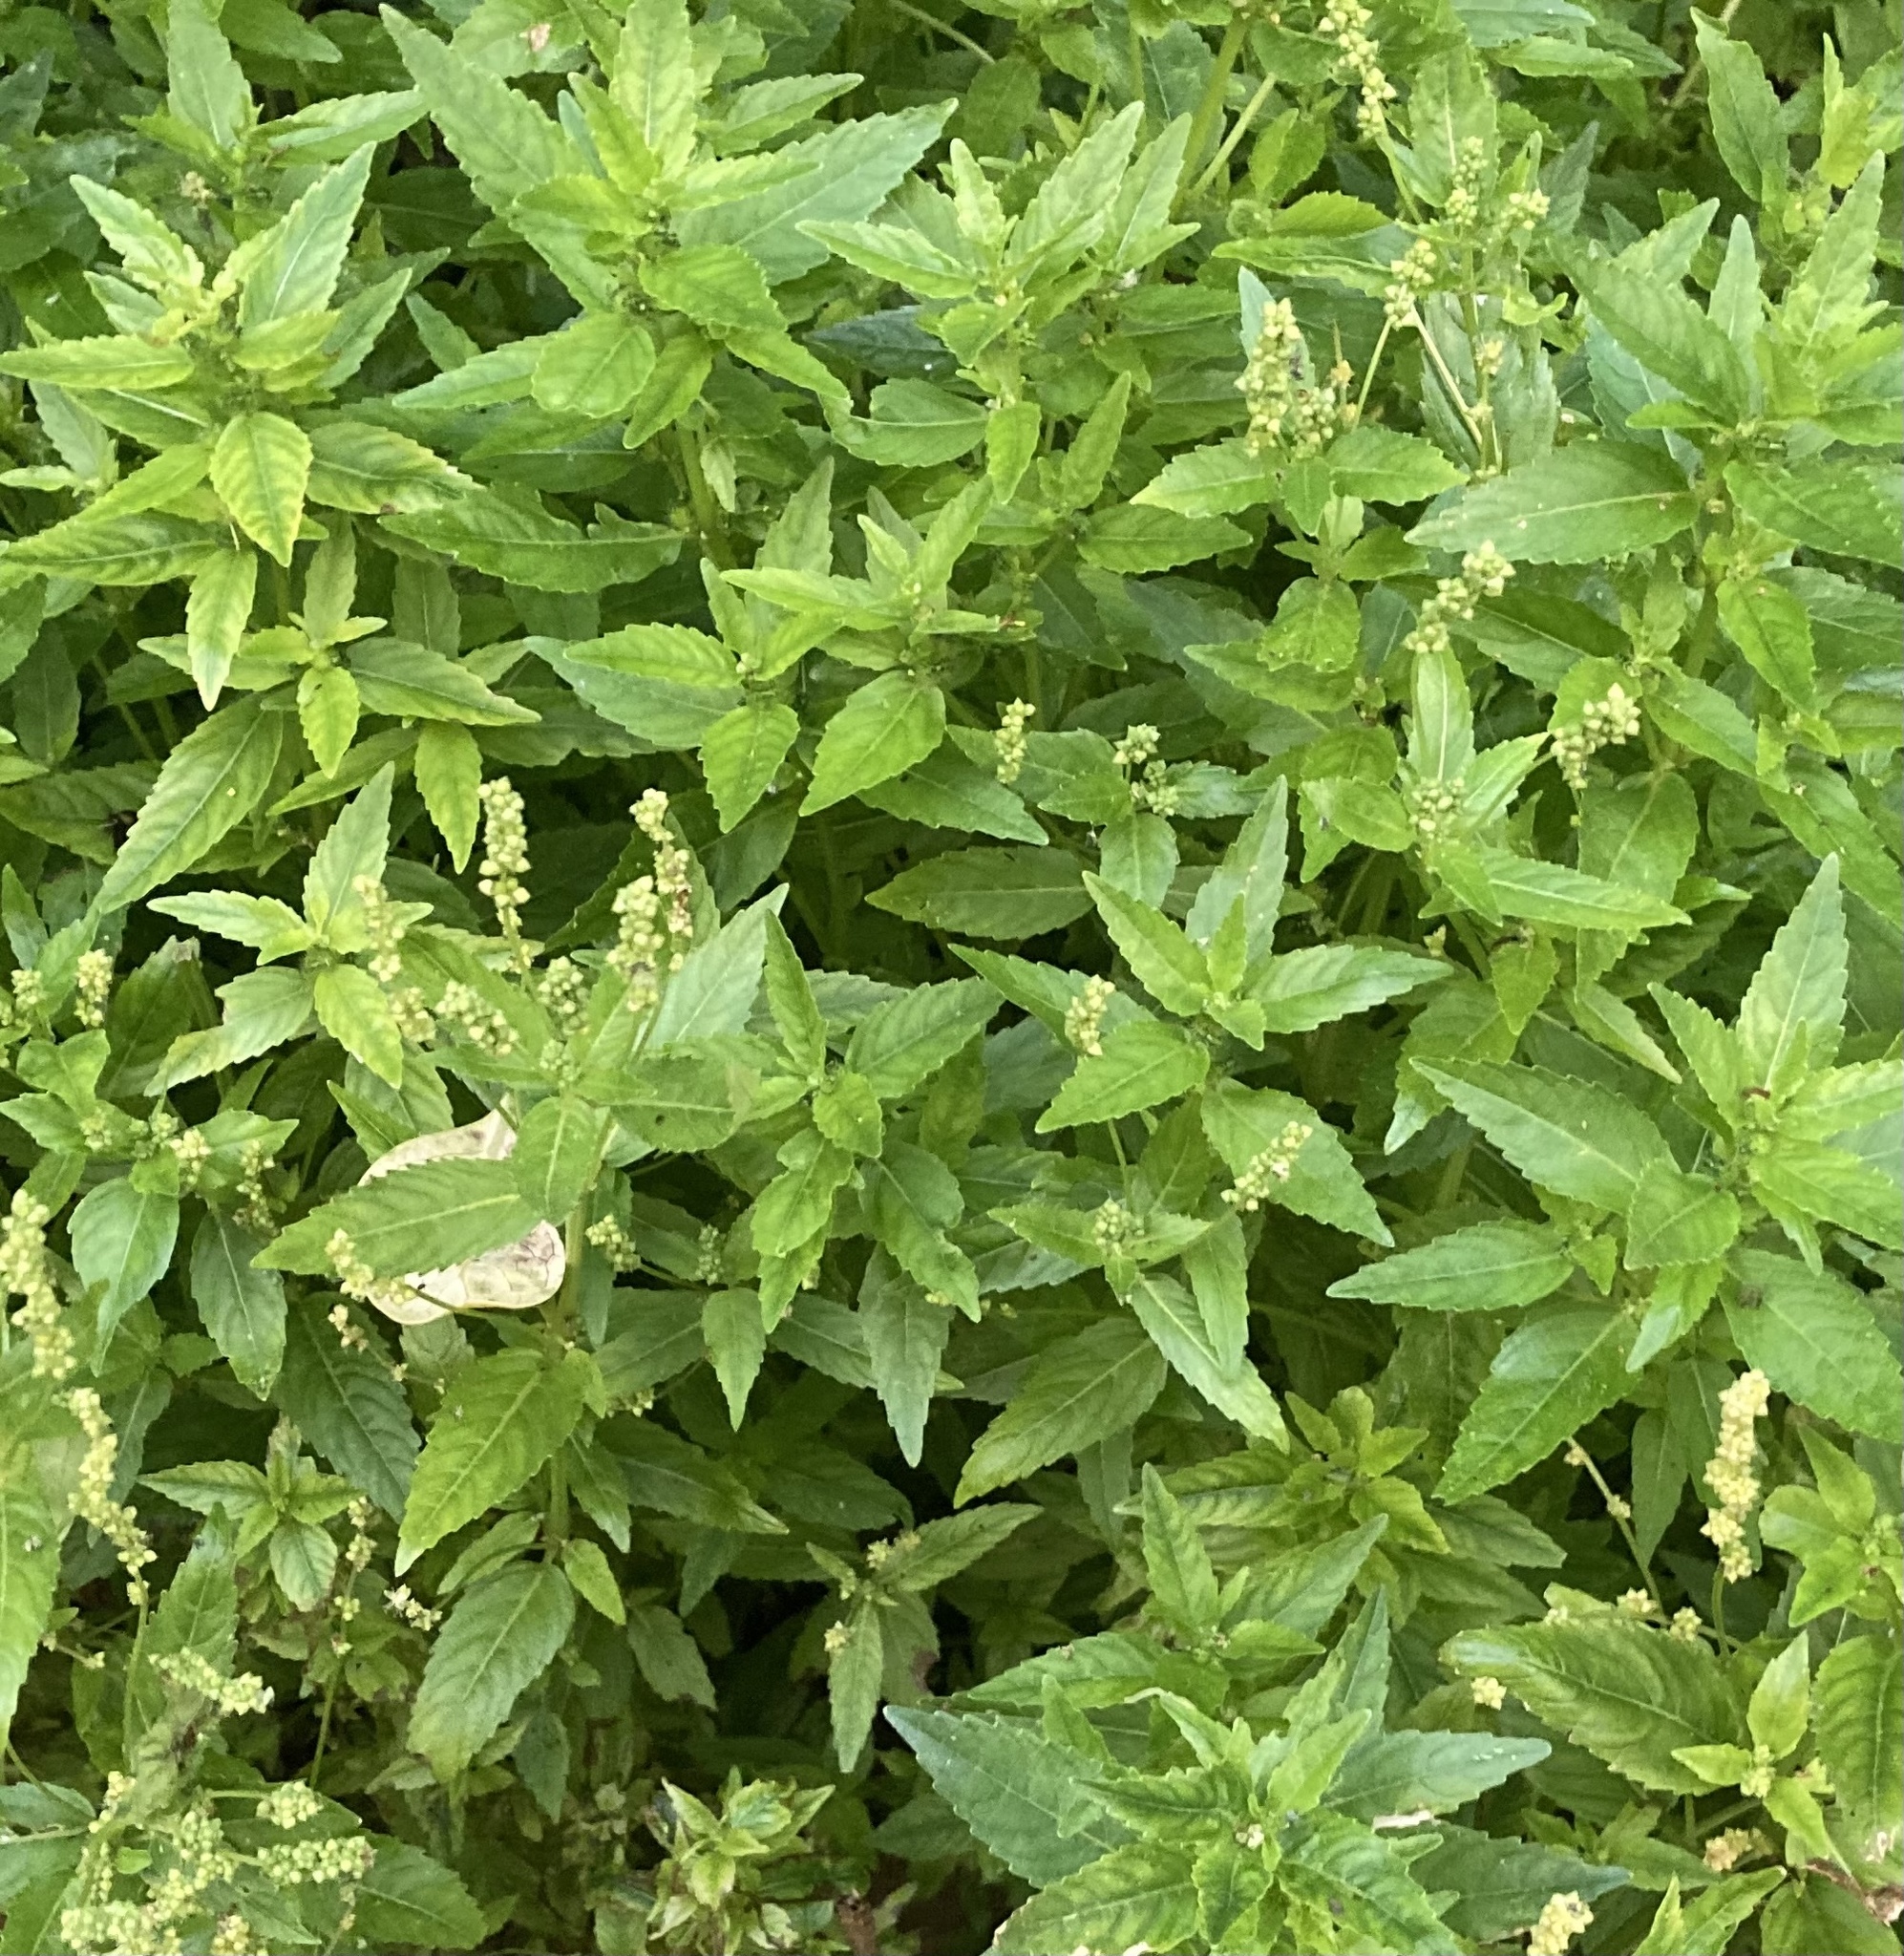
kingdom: Plantae
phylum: Tracheophyta
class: Magnoliopsida
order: Malpighiales
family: Euphorbiaceae
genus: Mercurialis
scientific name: Mercurialis annua
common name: Annual mercury
